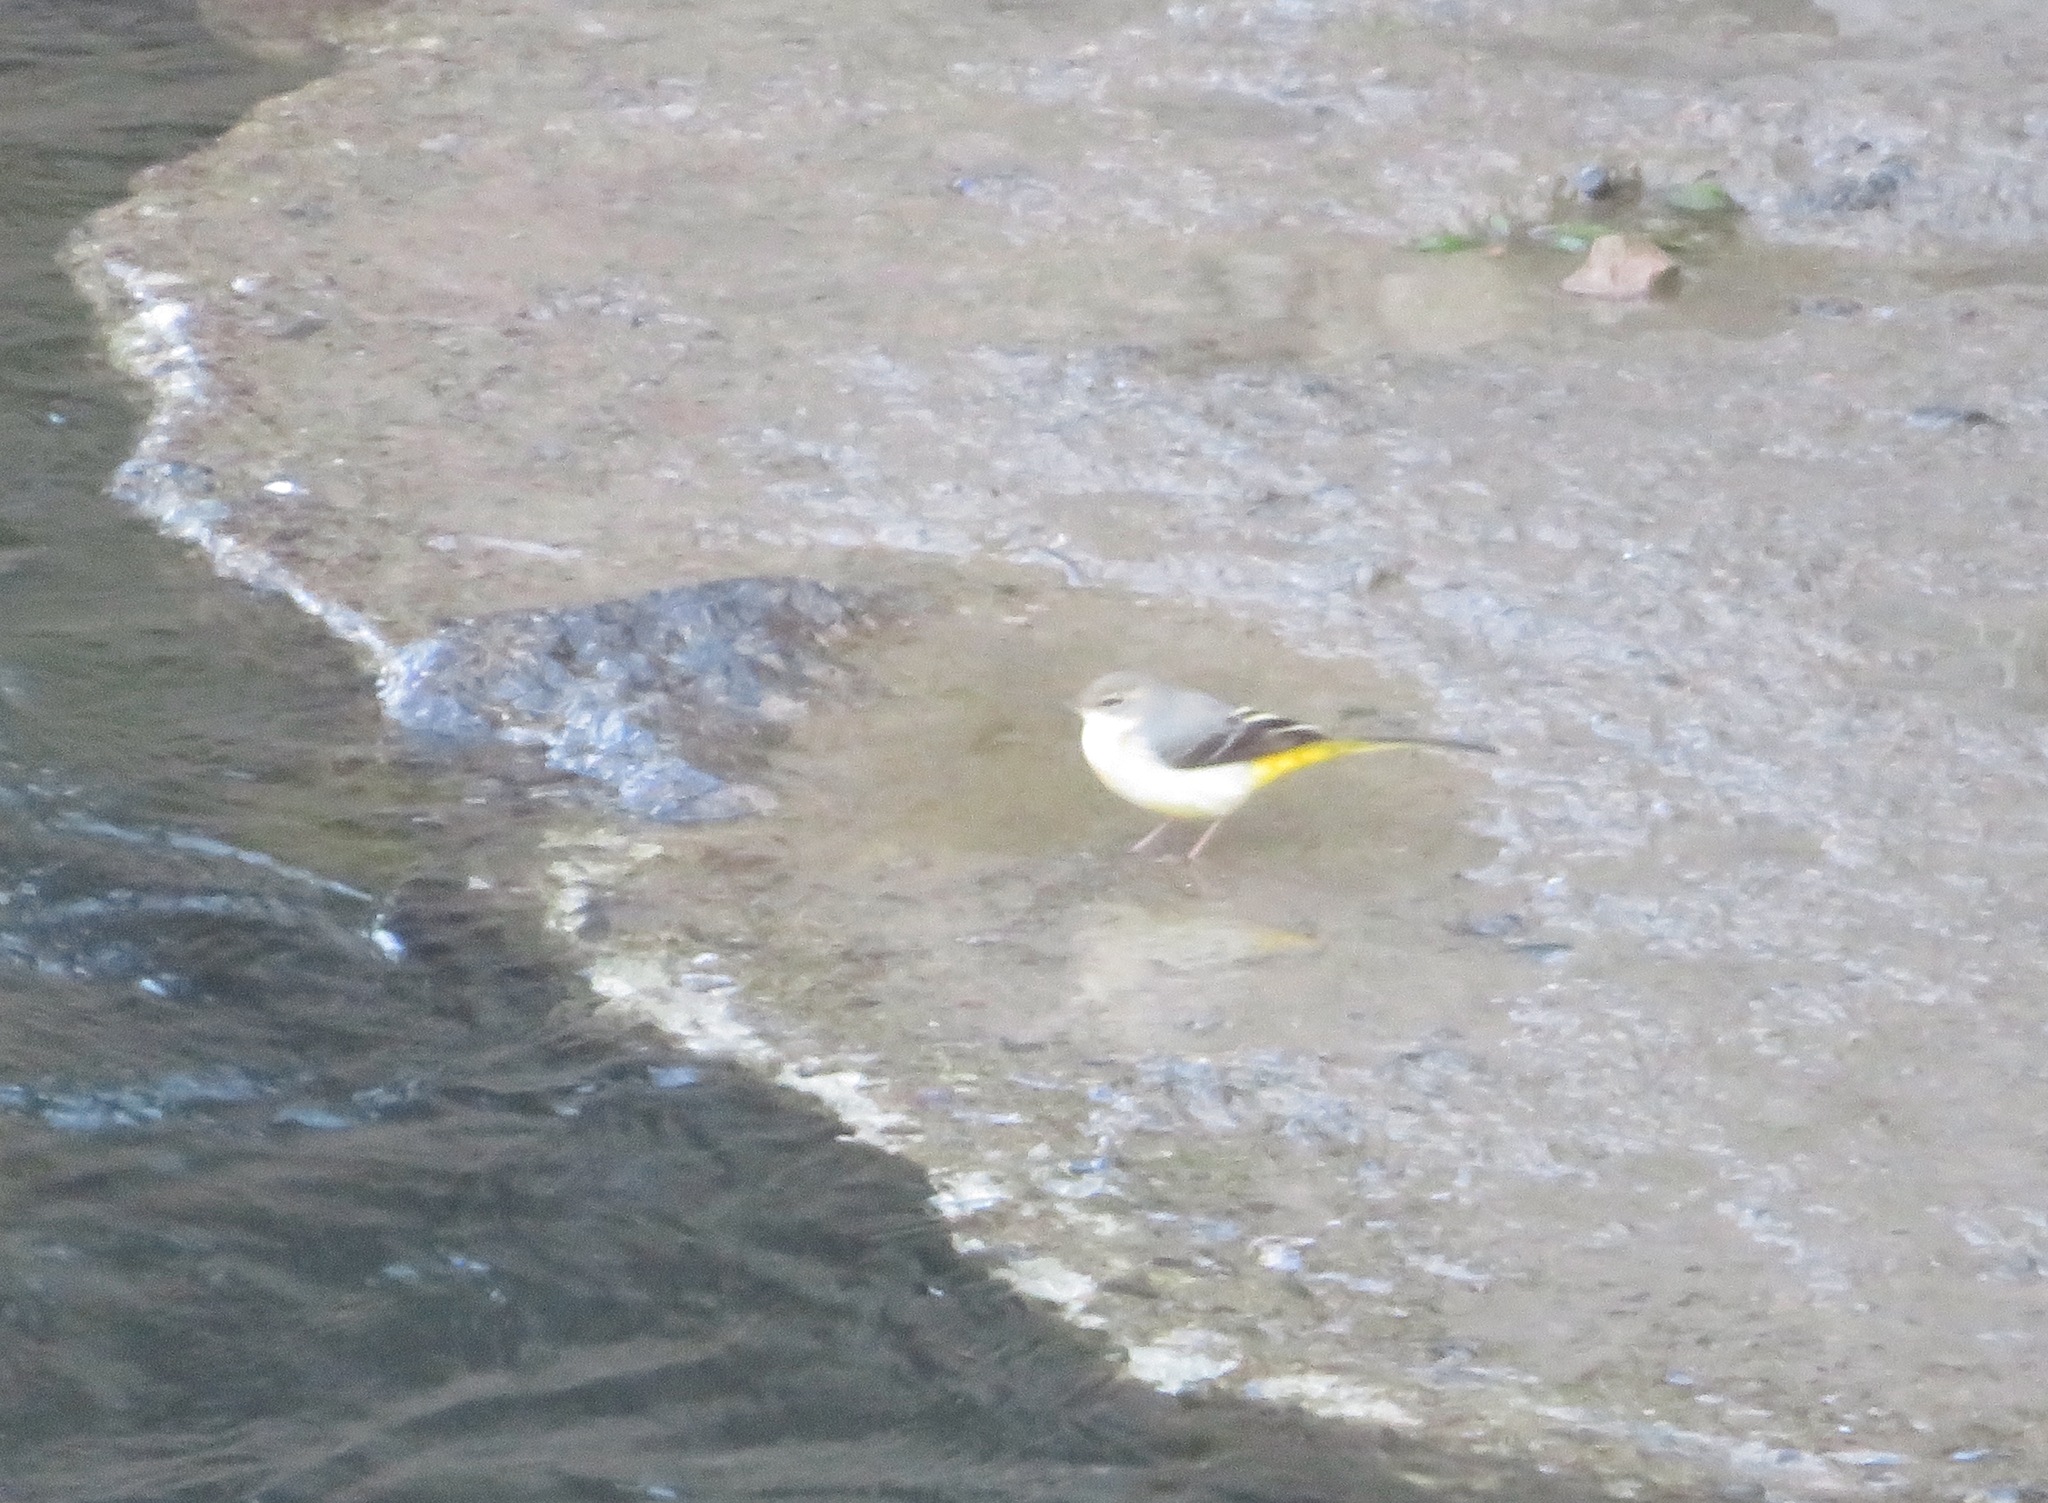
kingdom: Animalia
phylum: Chordata
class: Aves
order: Passeriformes
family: Motacillidae
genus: Motacilla
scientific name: Motacilla cinerea
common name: Grey wagtail
